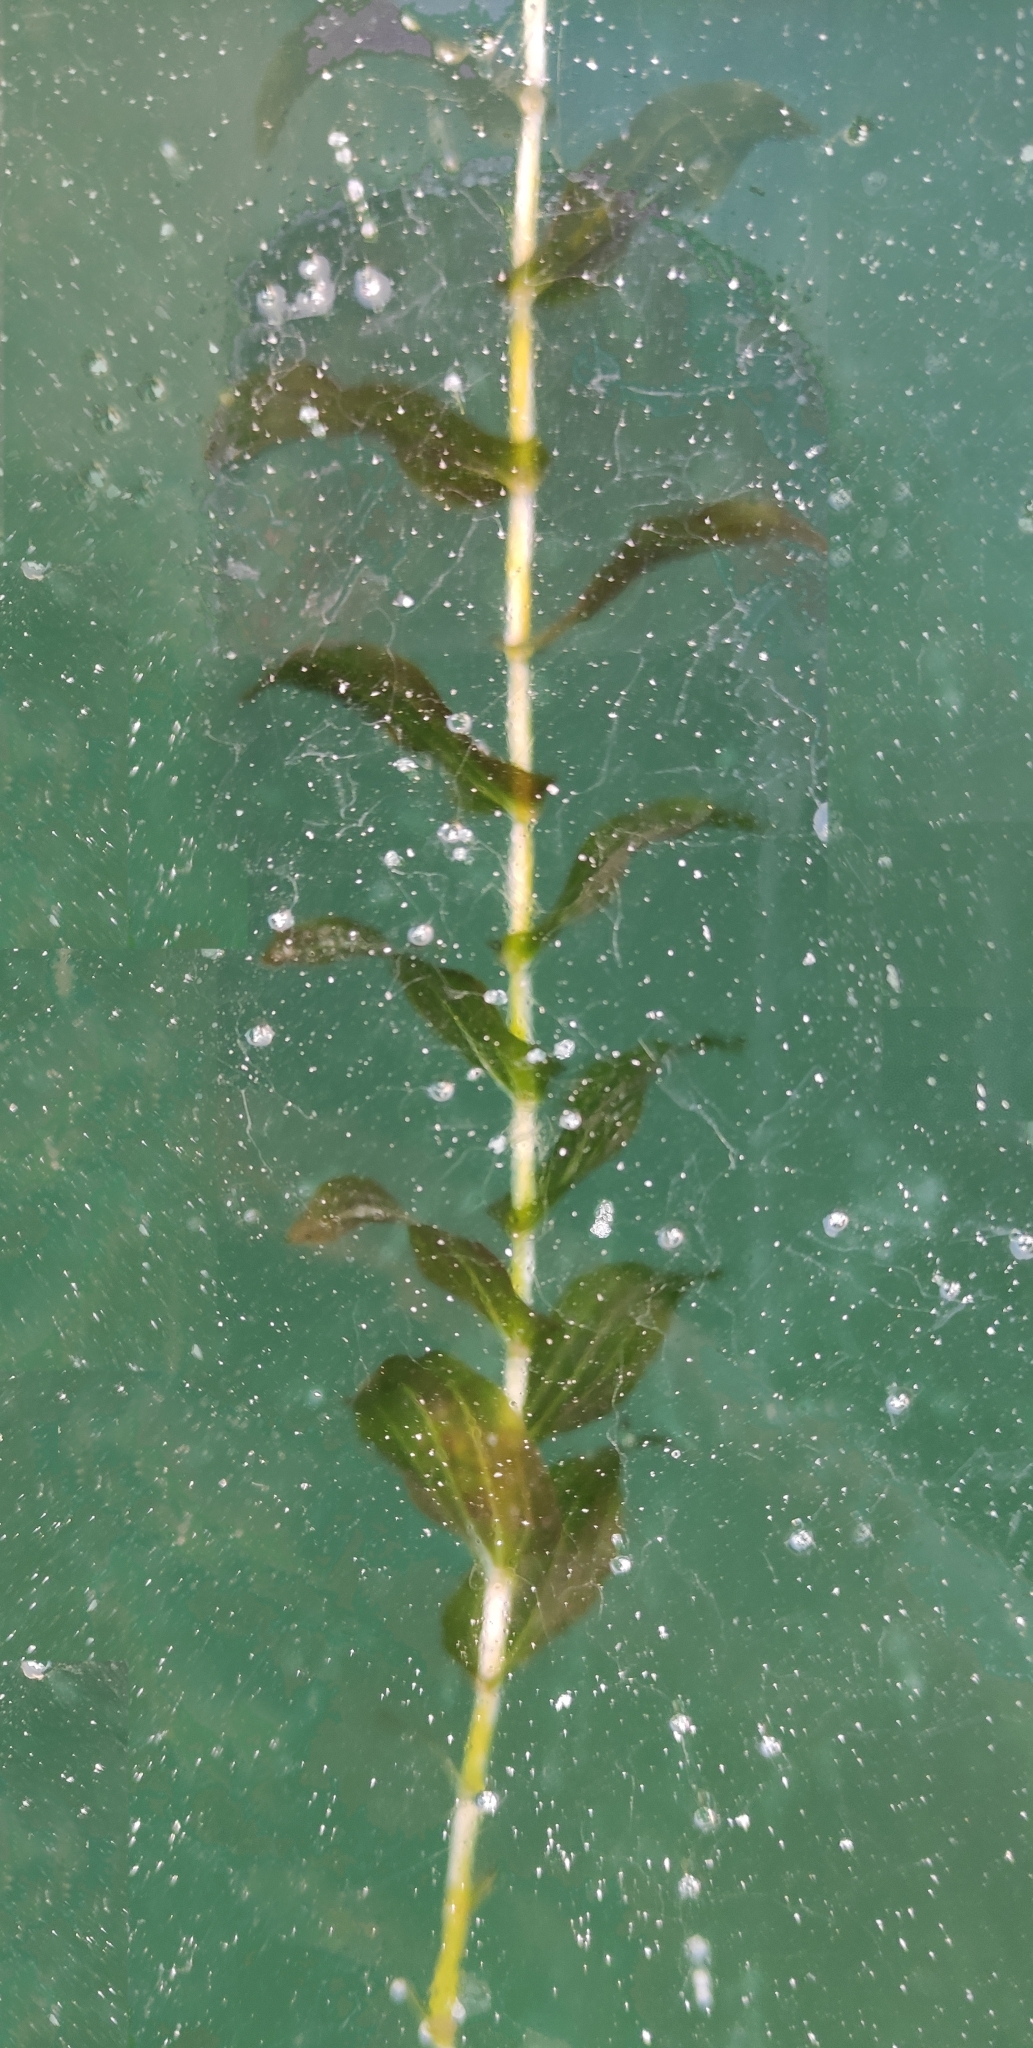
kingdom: Plantae
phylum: Tracheophyta
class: Liliopsida
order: Alismatales
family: Potamogetonaceae
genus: Potamogeton
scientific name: Potamogeton perfoliatus
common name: Perfoliate pondweed
